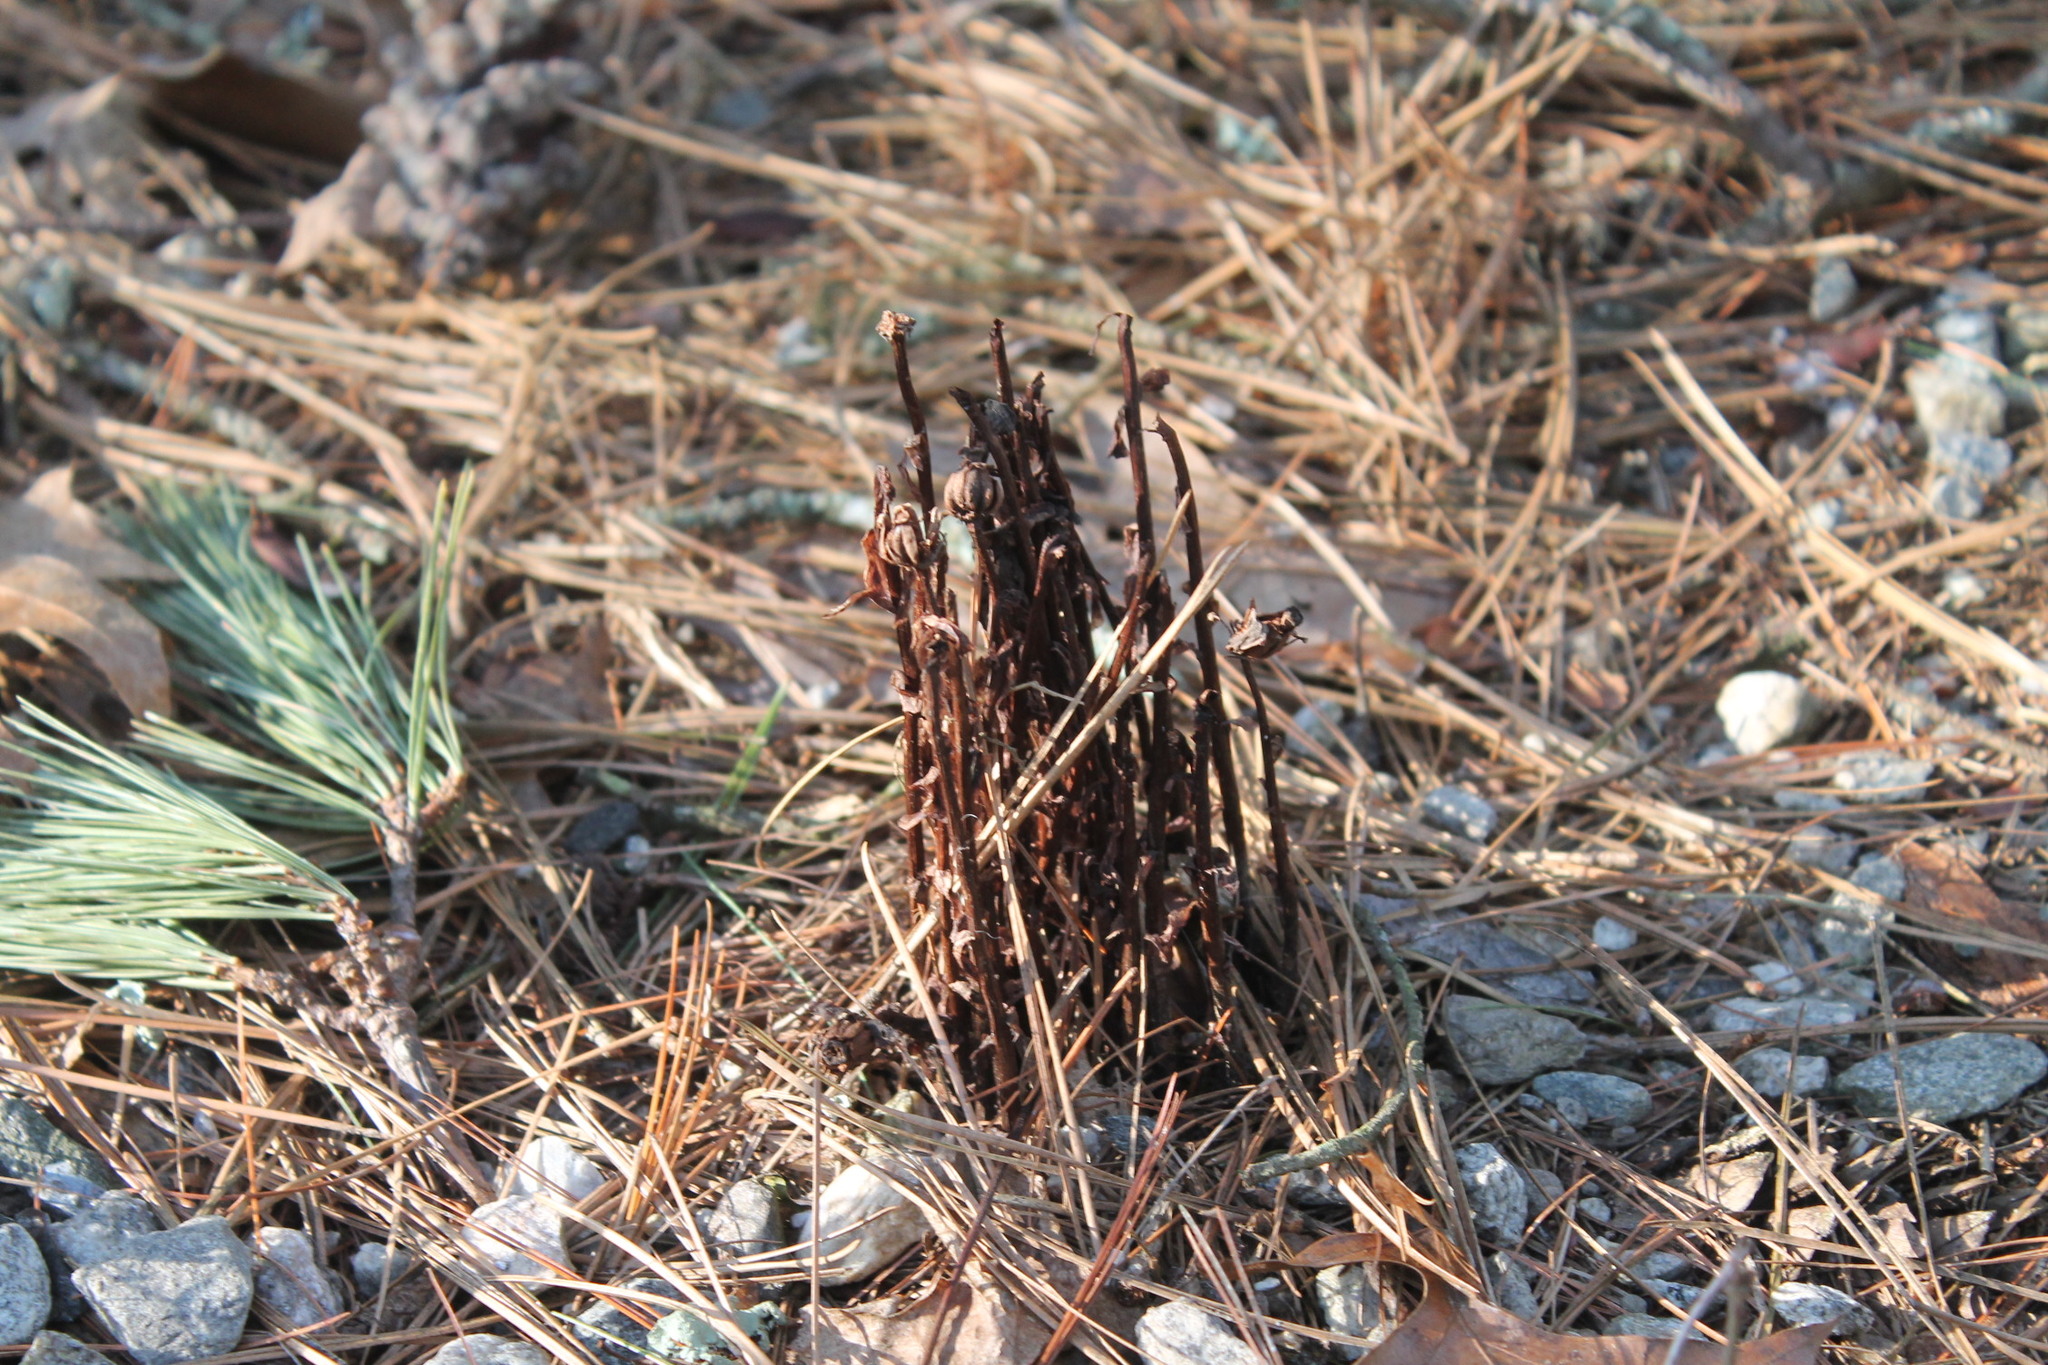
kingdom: Plantae
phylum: Tracheophyta
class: Magnoliopsida
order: Ericales
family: Ericaceae
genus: Monotropa
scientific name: Monotropa uniflora
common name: Convulsion root
